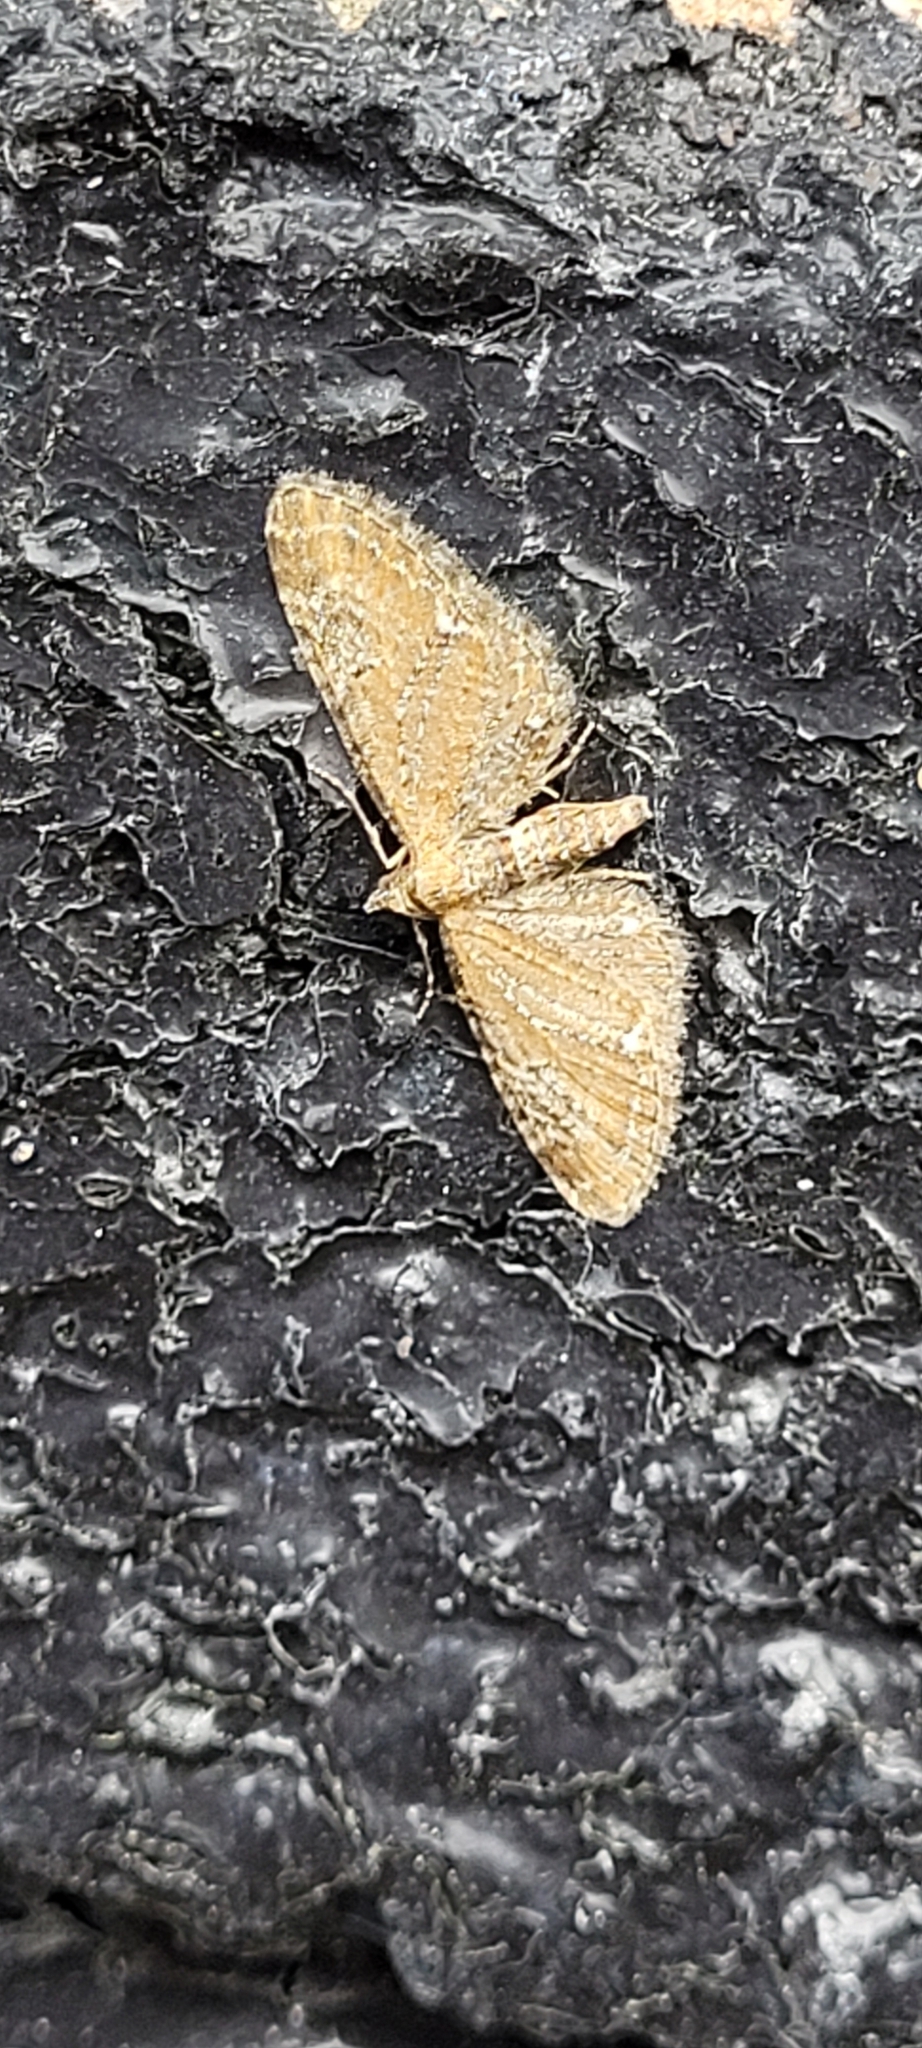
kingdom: Animalia
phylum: Arthropoda
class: Insecta
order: Lepidoptera
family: Geometridae
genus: Eupithecia
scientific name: Eupithecia vulgata
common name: Common pug
